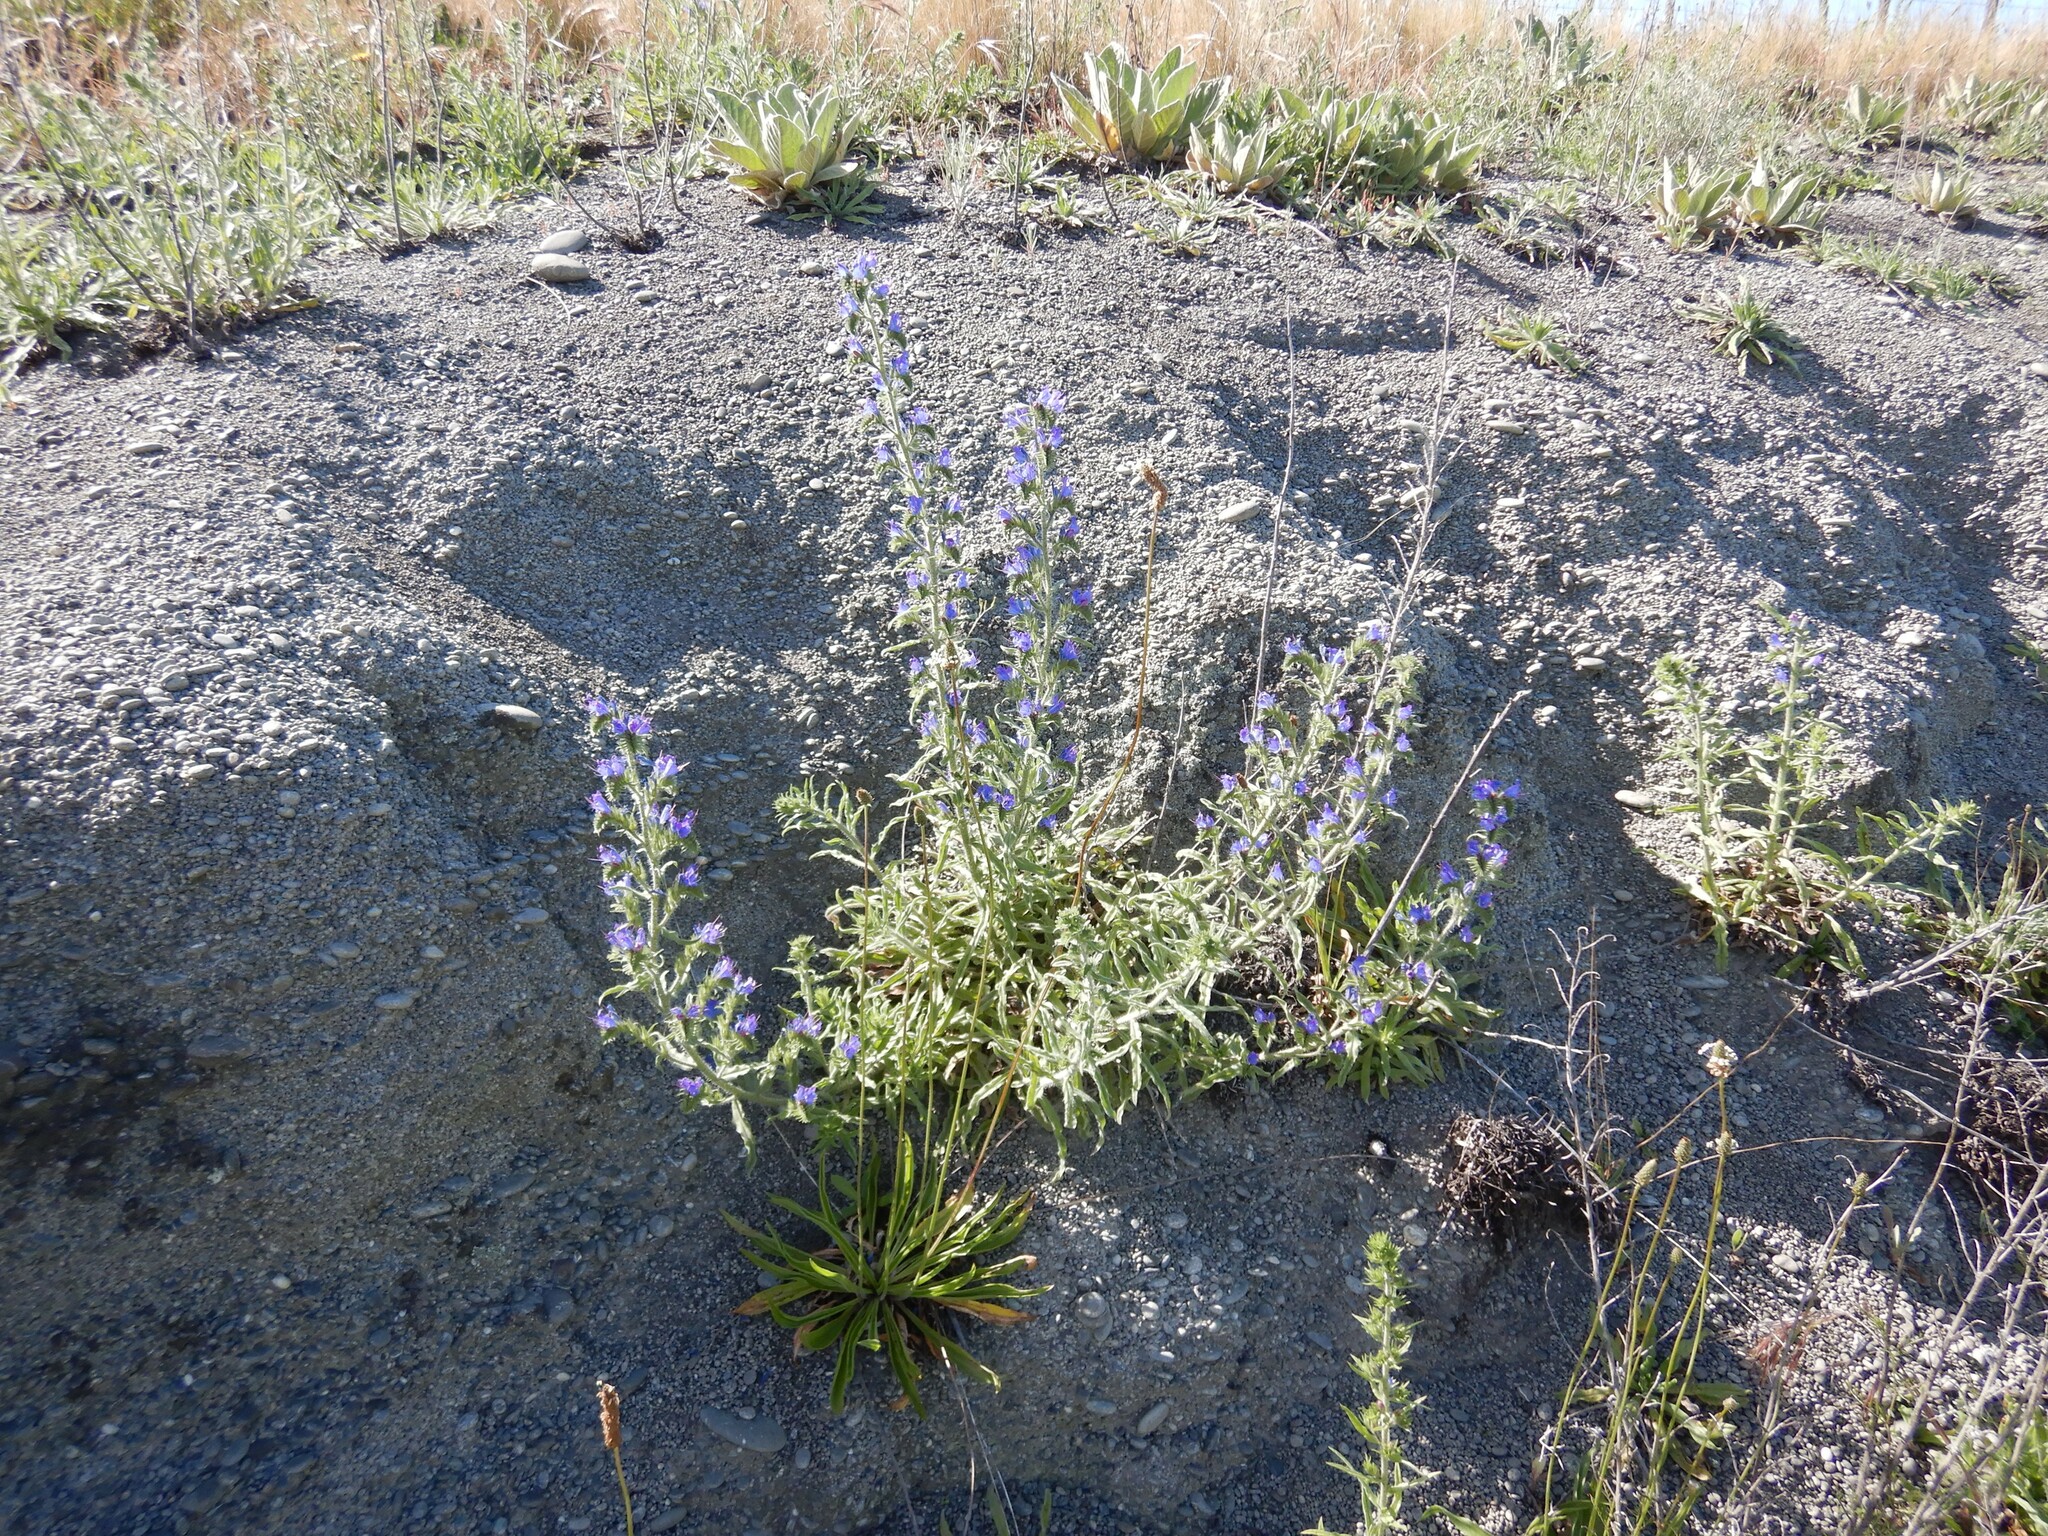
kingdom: Plantae
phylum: Tracheophyta
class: Magnoliopsida
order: Boraginales
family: Boraginaceae
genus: Echium
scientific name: Echium vulgare
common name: Common viper's bugloss
